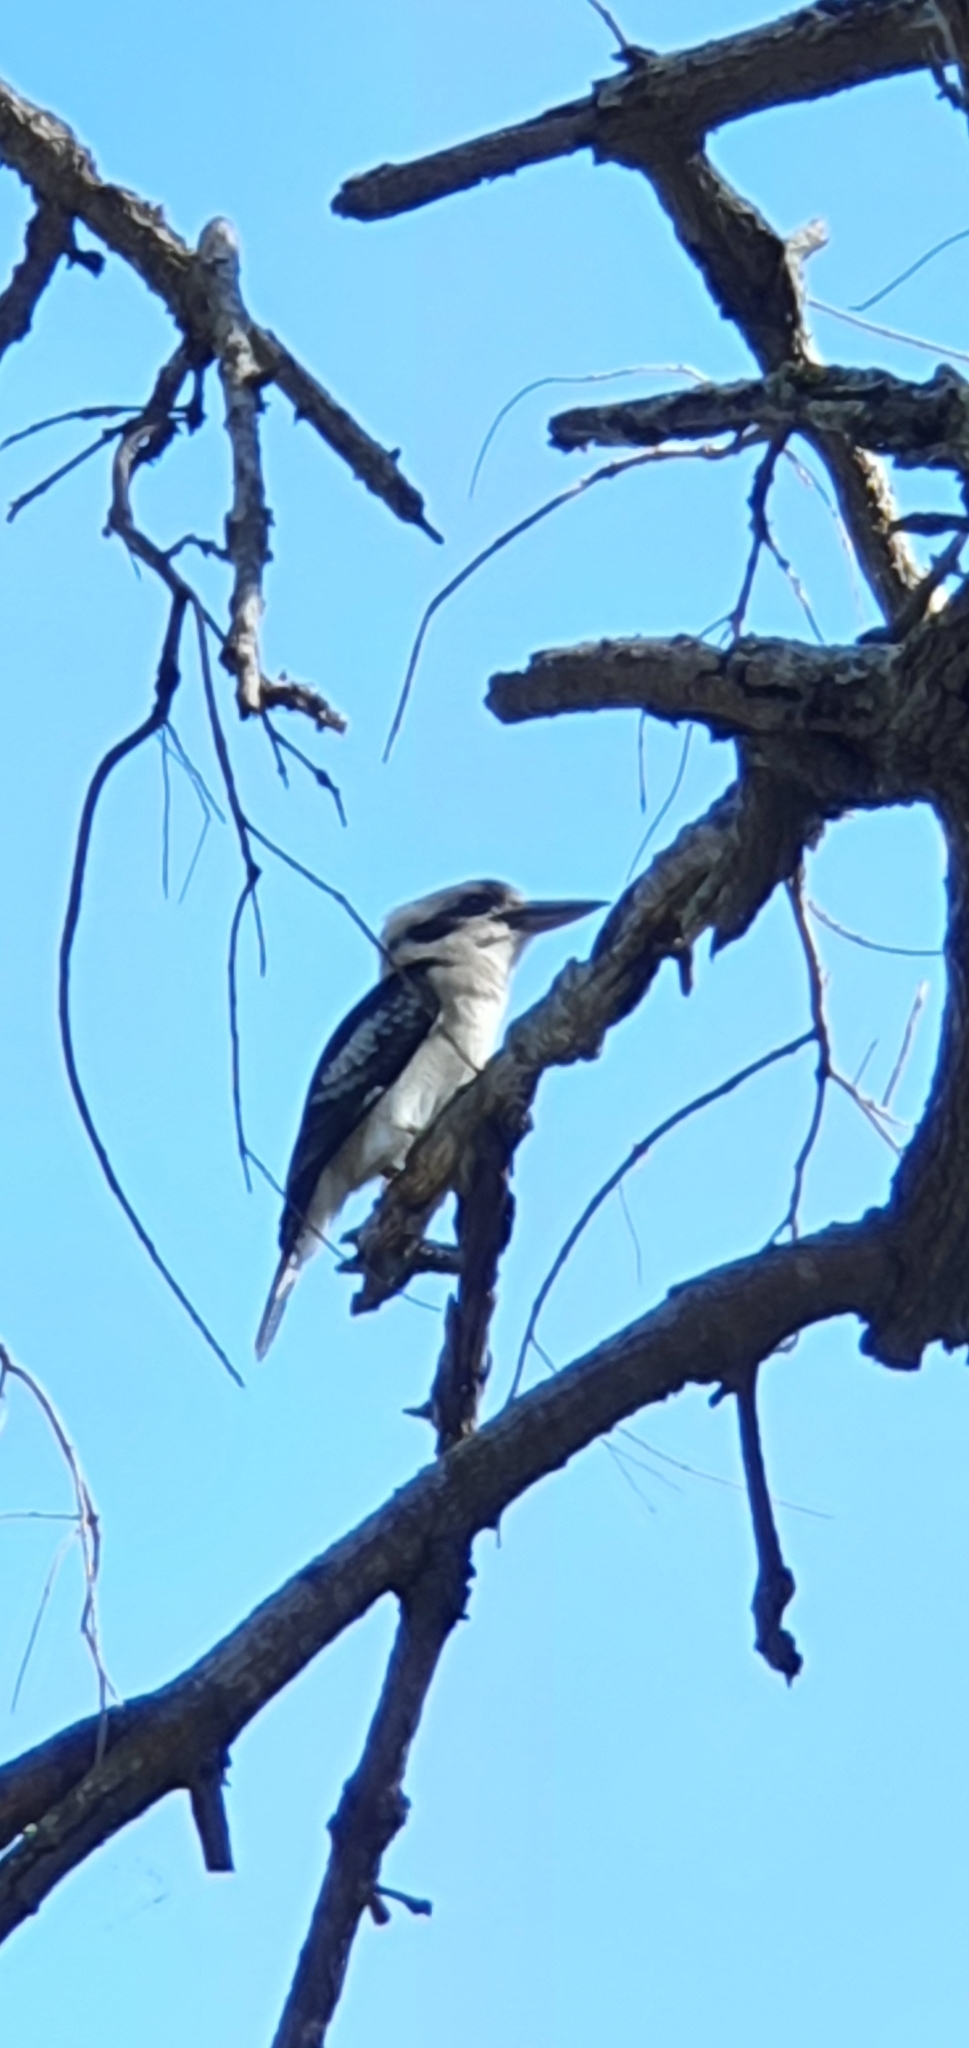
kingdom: Animalia
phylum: Chordata
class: Aves
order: Coraciiformes
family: Alcedinidae
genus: Dacelo
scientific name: Dacelo novaeguineae
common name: Laughing kookaburra
